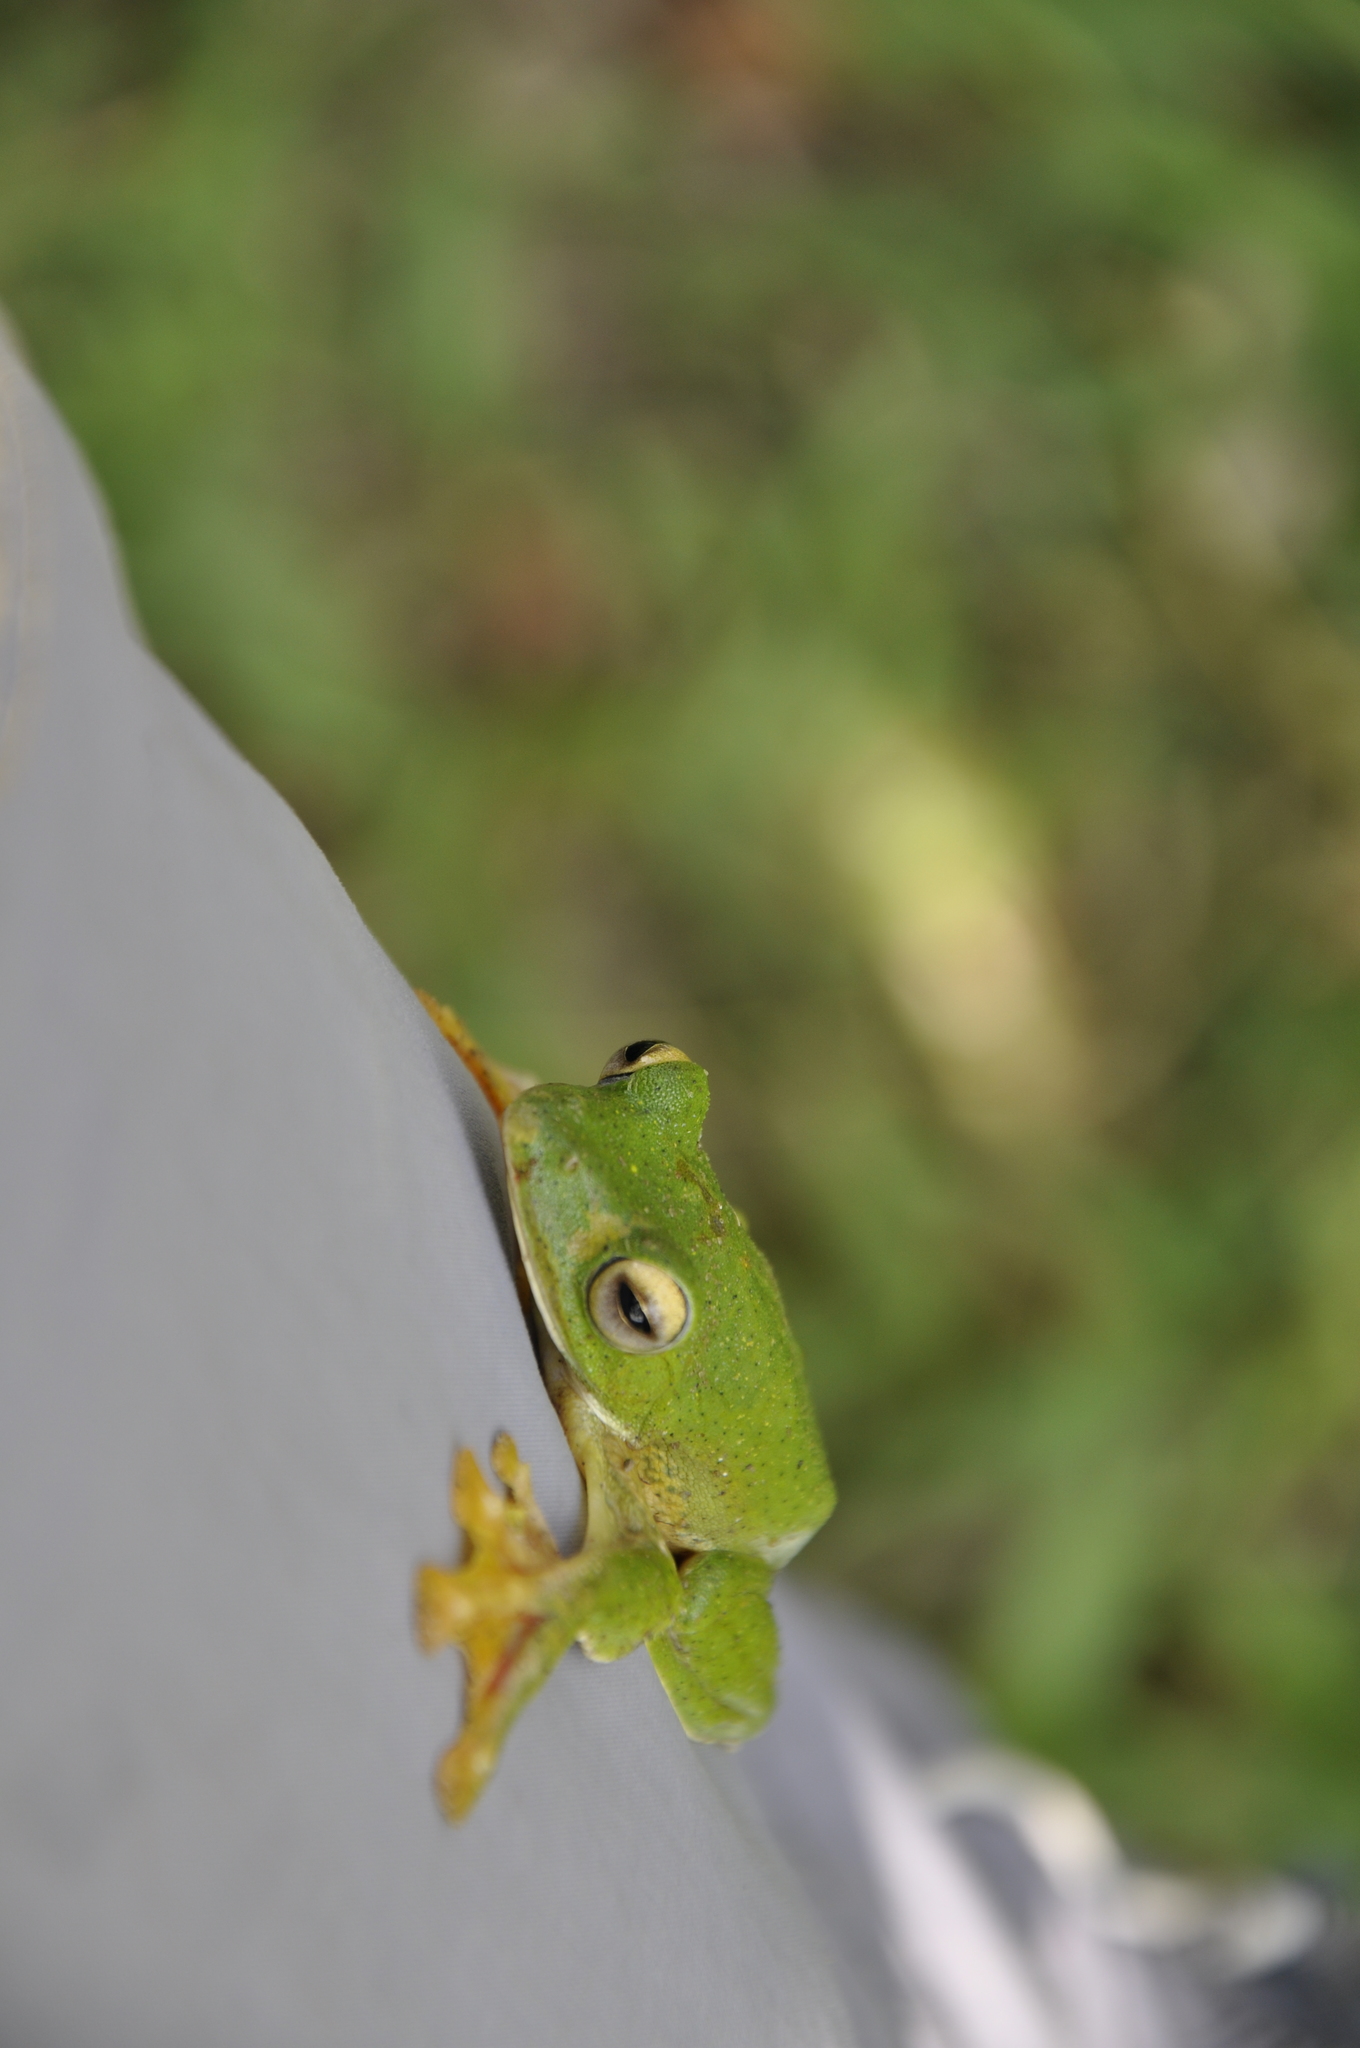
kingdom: Animalia
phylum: Chordata
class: Amphibia
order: Anura
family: Rhacophoridae
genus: Rhacophorus
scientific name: Rhacophorus malabaricus
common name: Malabar gliding frog
